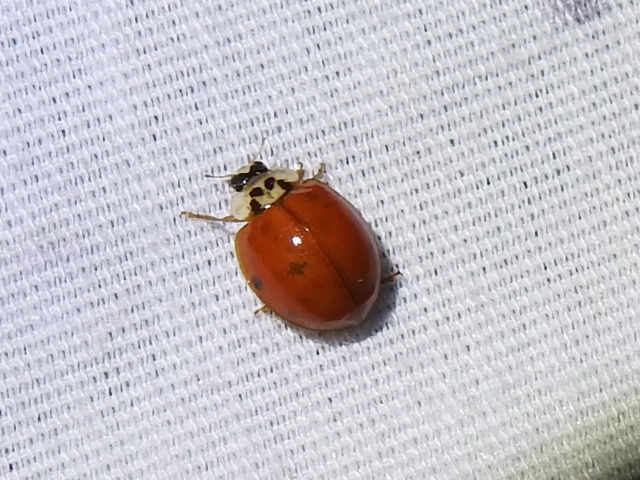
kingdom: Animalia
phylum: Arthropoda
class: Insecta
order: Coleoptera
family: Coccinellidae
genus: Harmonia
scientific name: Harmonia axyridis
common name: Harlequin ladybird
